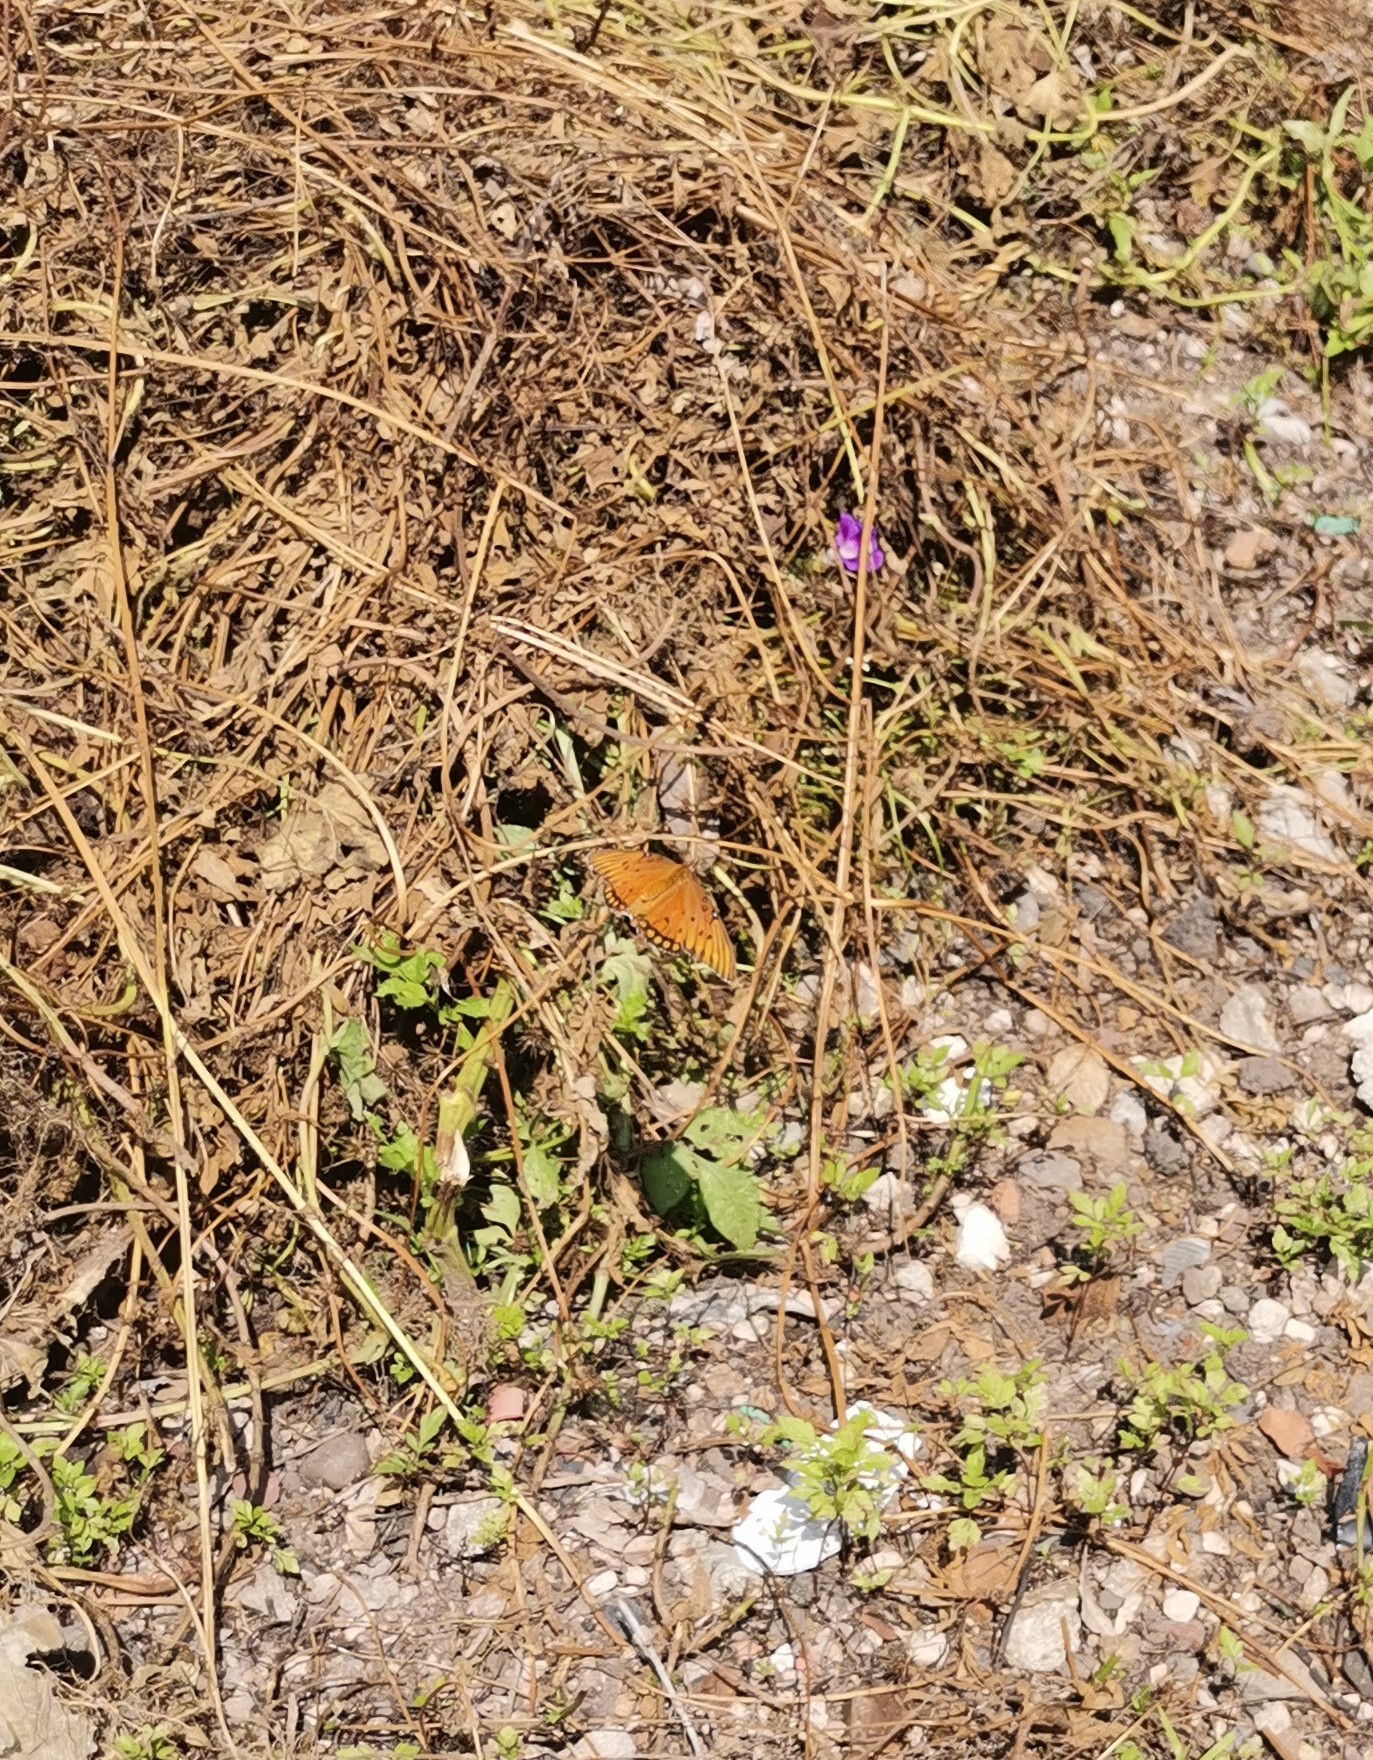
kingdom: Animalia
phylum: Arthropoda
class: Insecta
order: Lepidoptera
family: Nymphalidae
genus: Dione
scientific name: Dione vanillae
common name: Gulf fritillary
